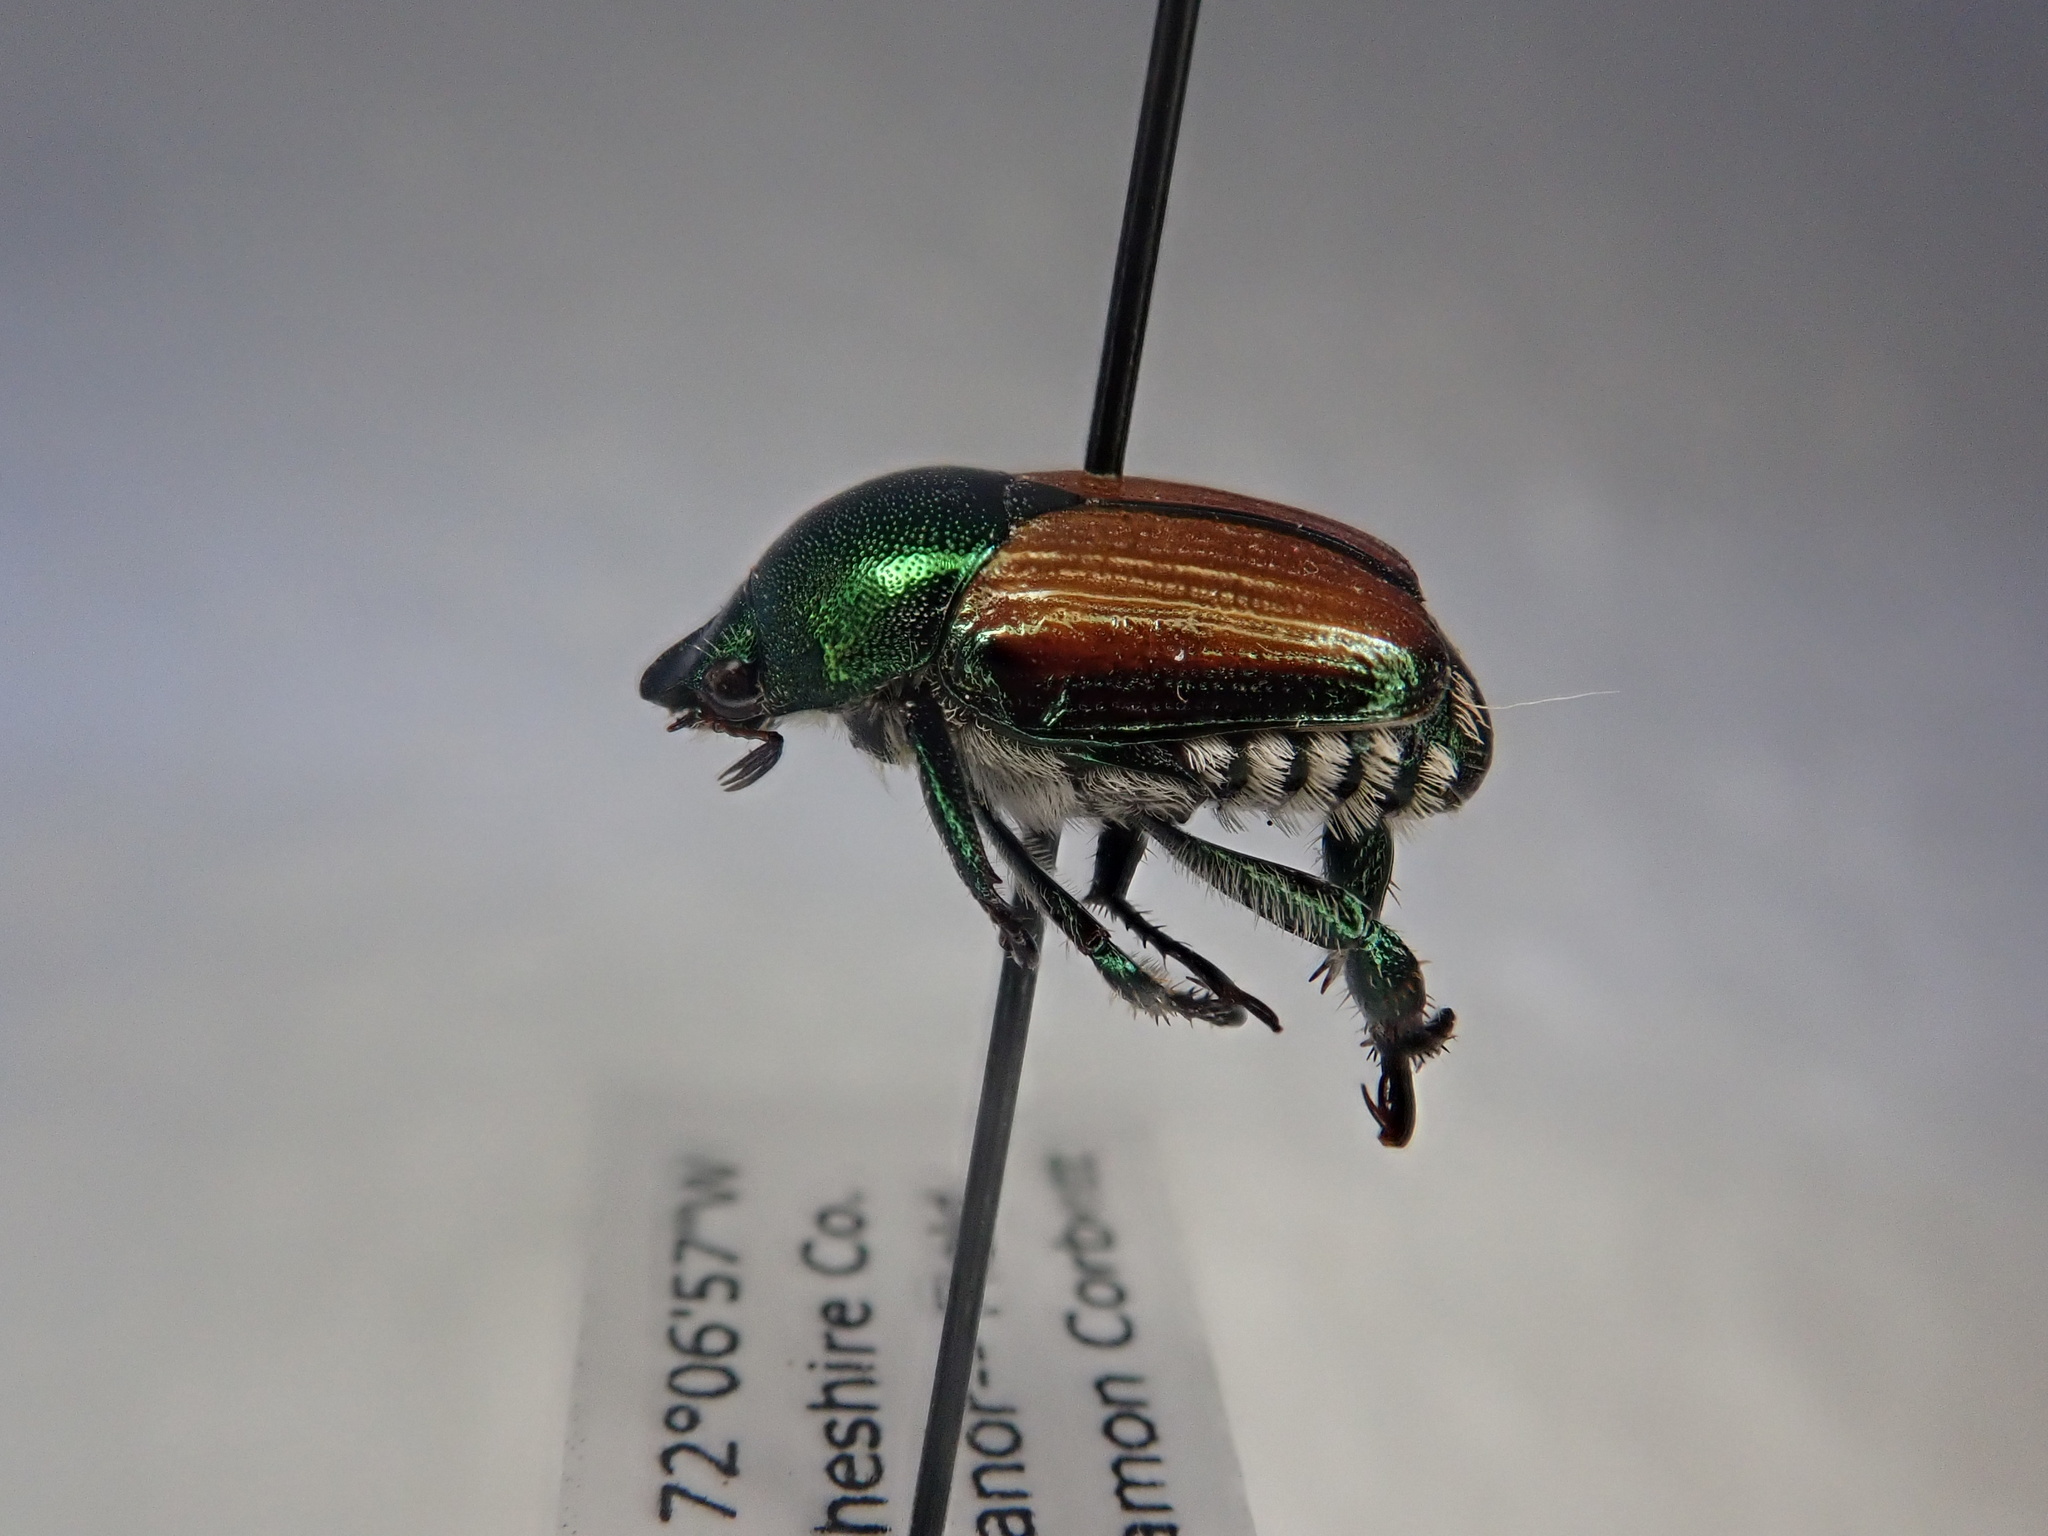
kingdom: Animalia
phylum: Arthropoda
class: Insecta
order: Coleoptera
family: Scarabaeidae
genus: Popillia
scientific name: Popillia japonica
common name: Japanese beetle
